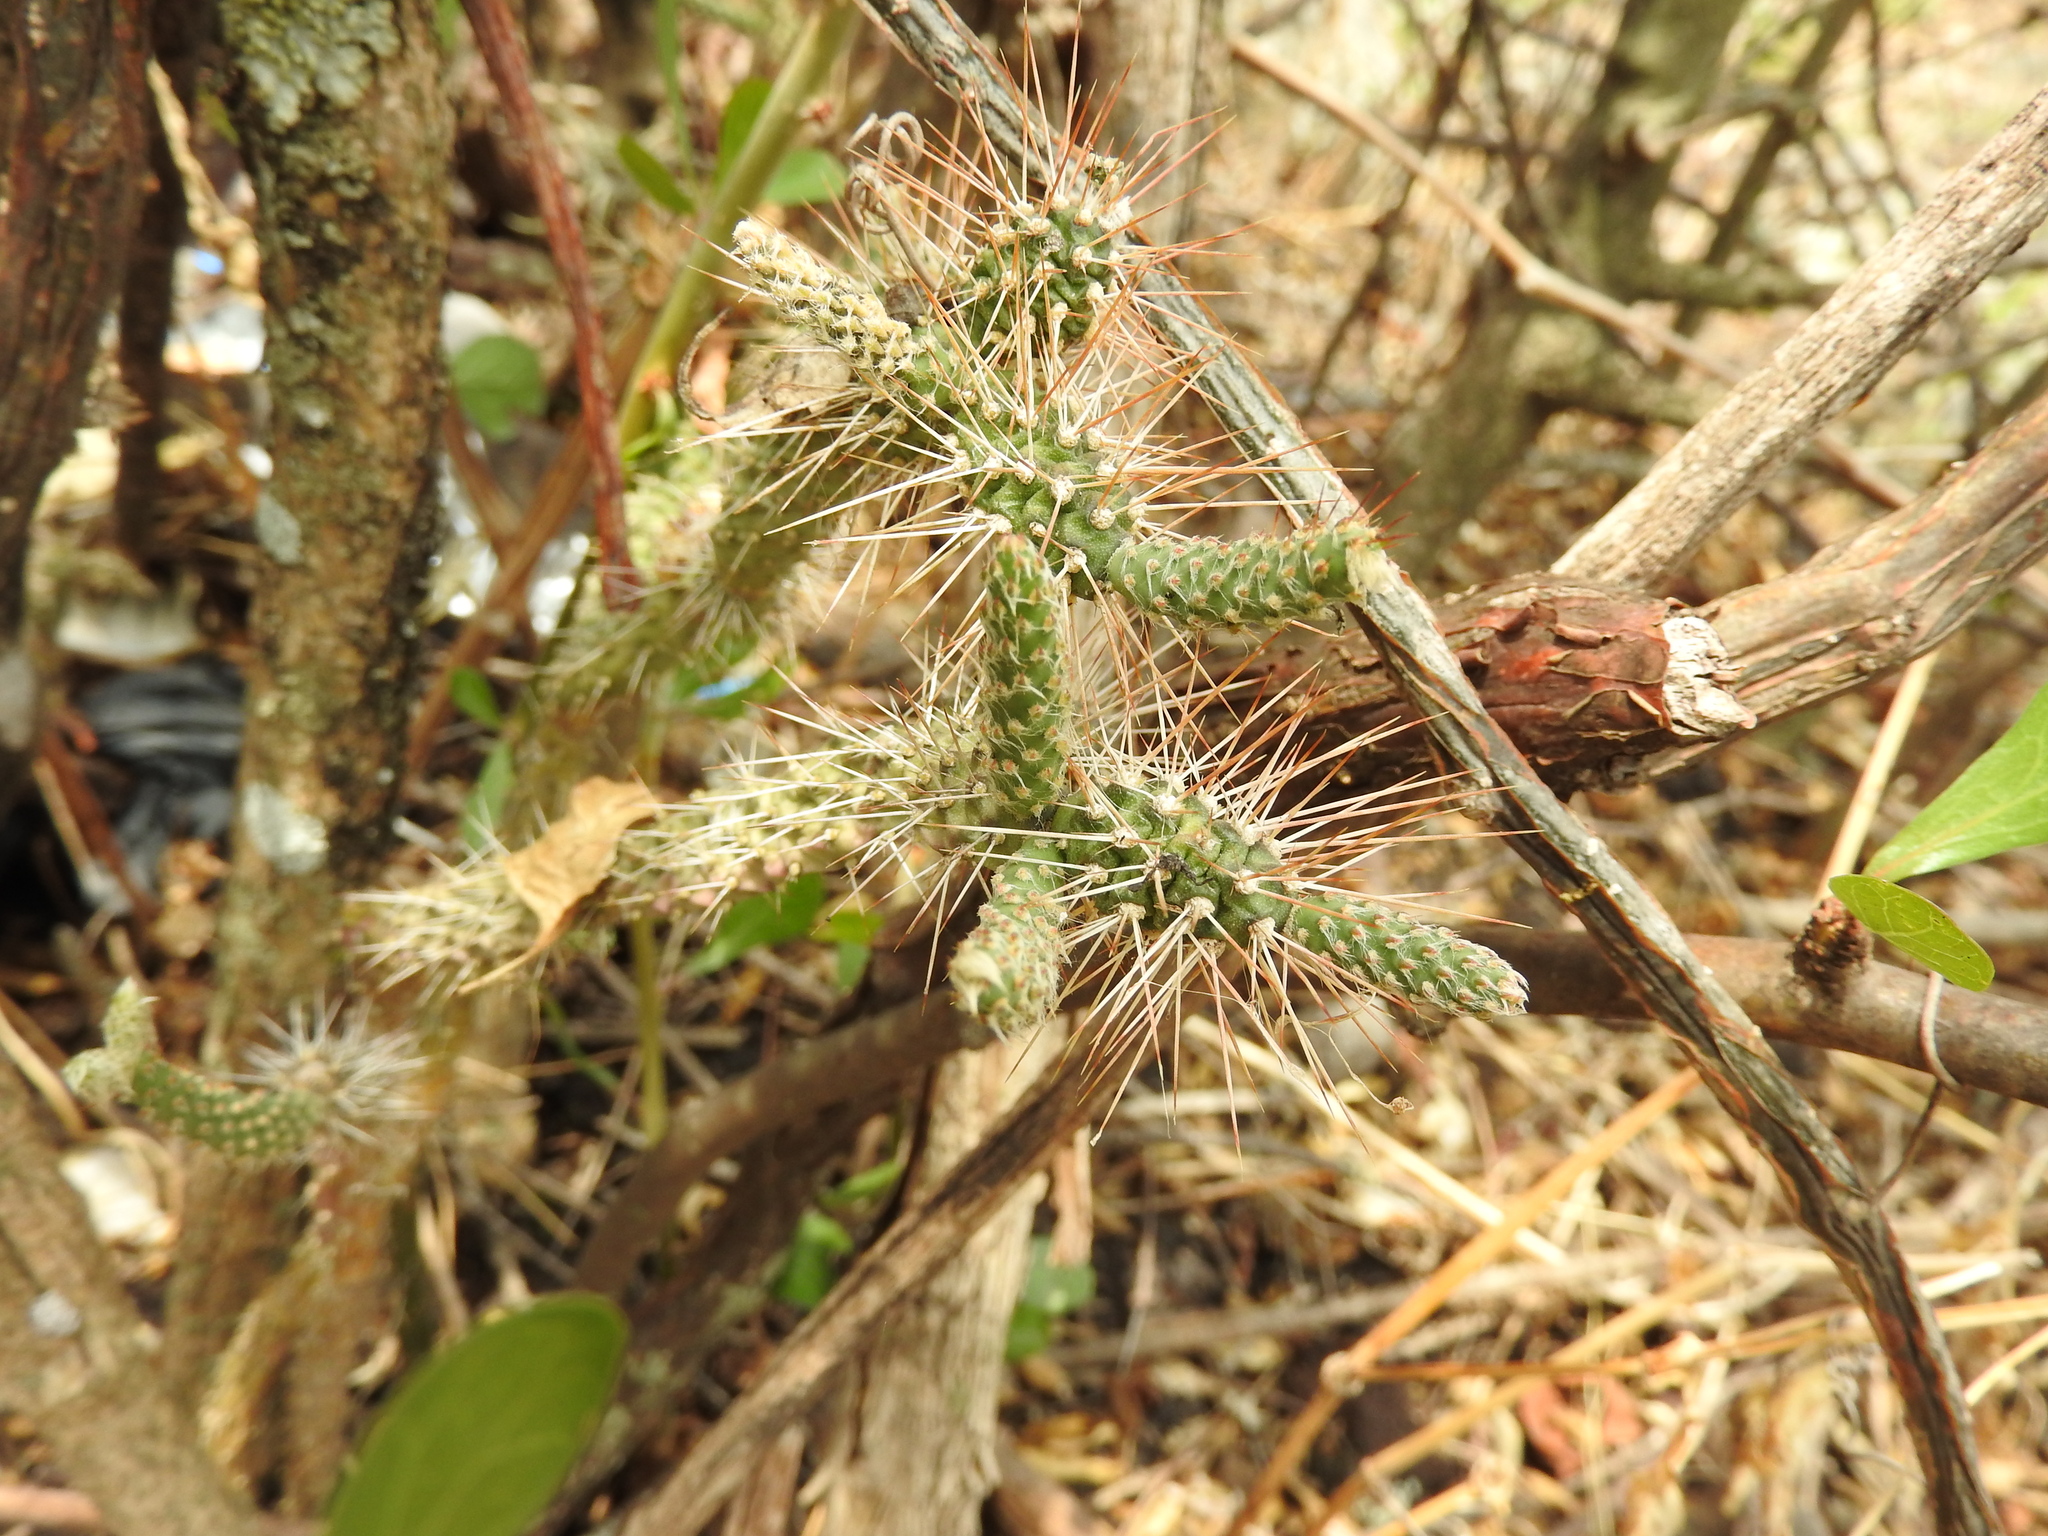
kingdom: Plantae
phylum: Tracheophyta
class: Magnoliopsida
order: Caryophyllales
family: Cactaceae
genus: Opuntia
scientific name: Opuntia pubescens
